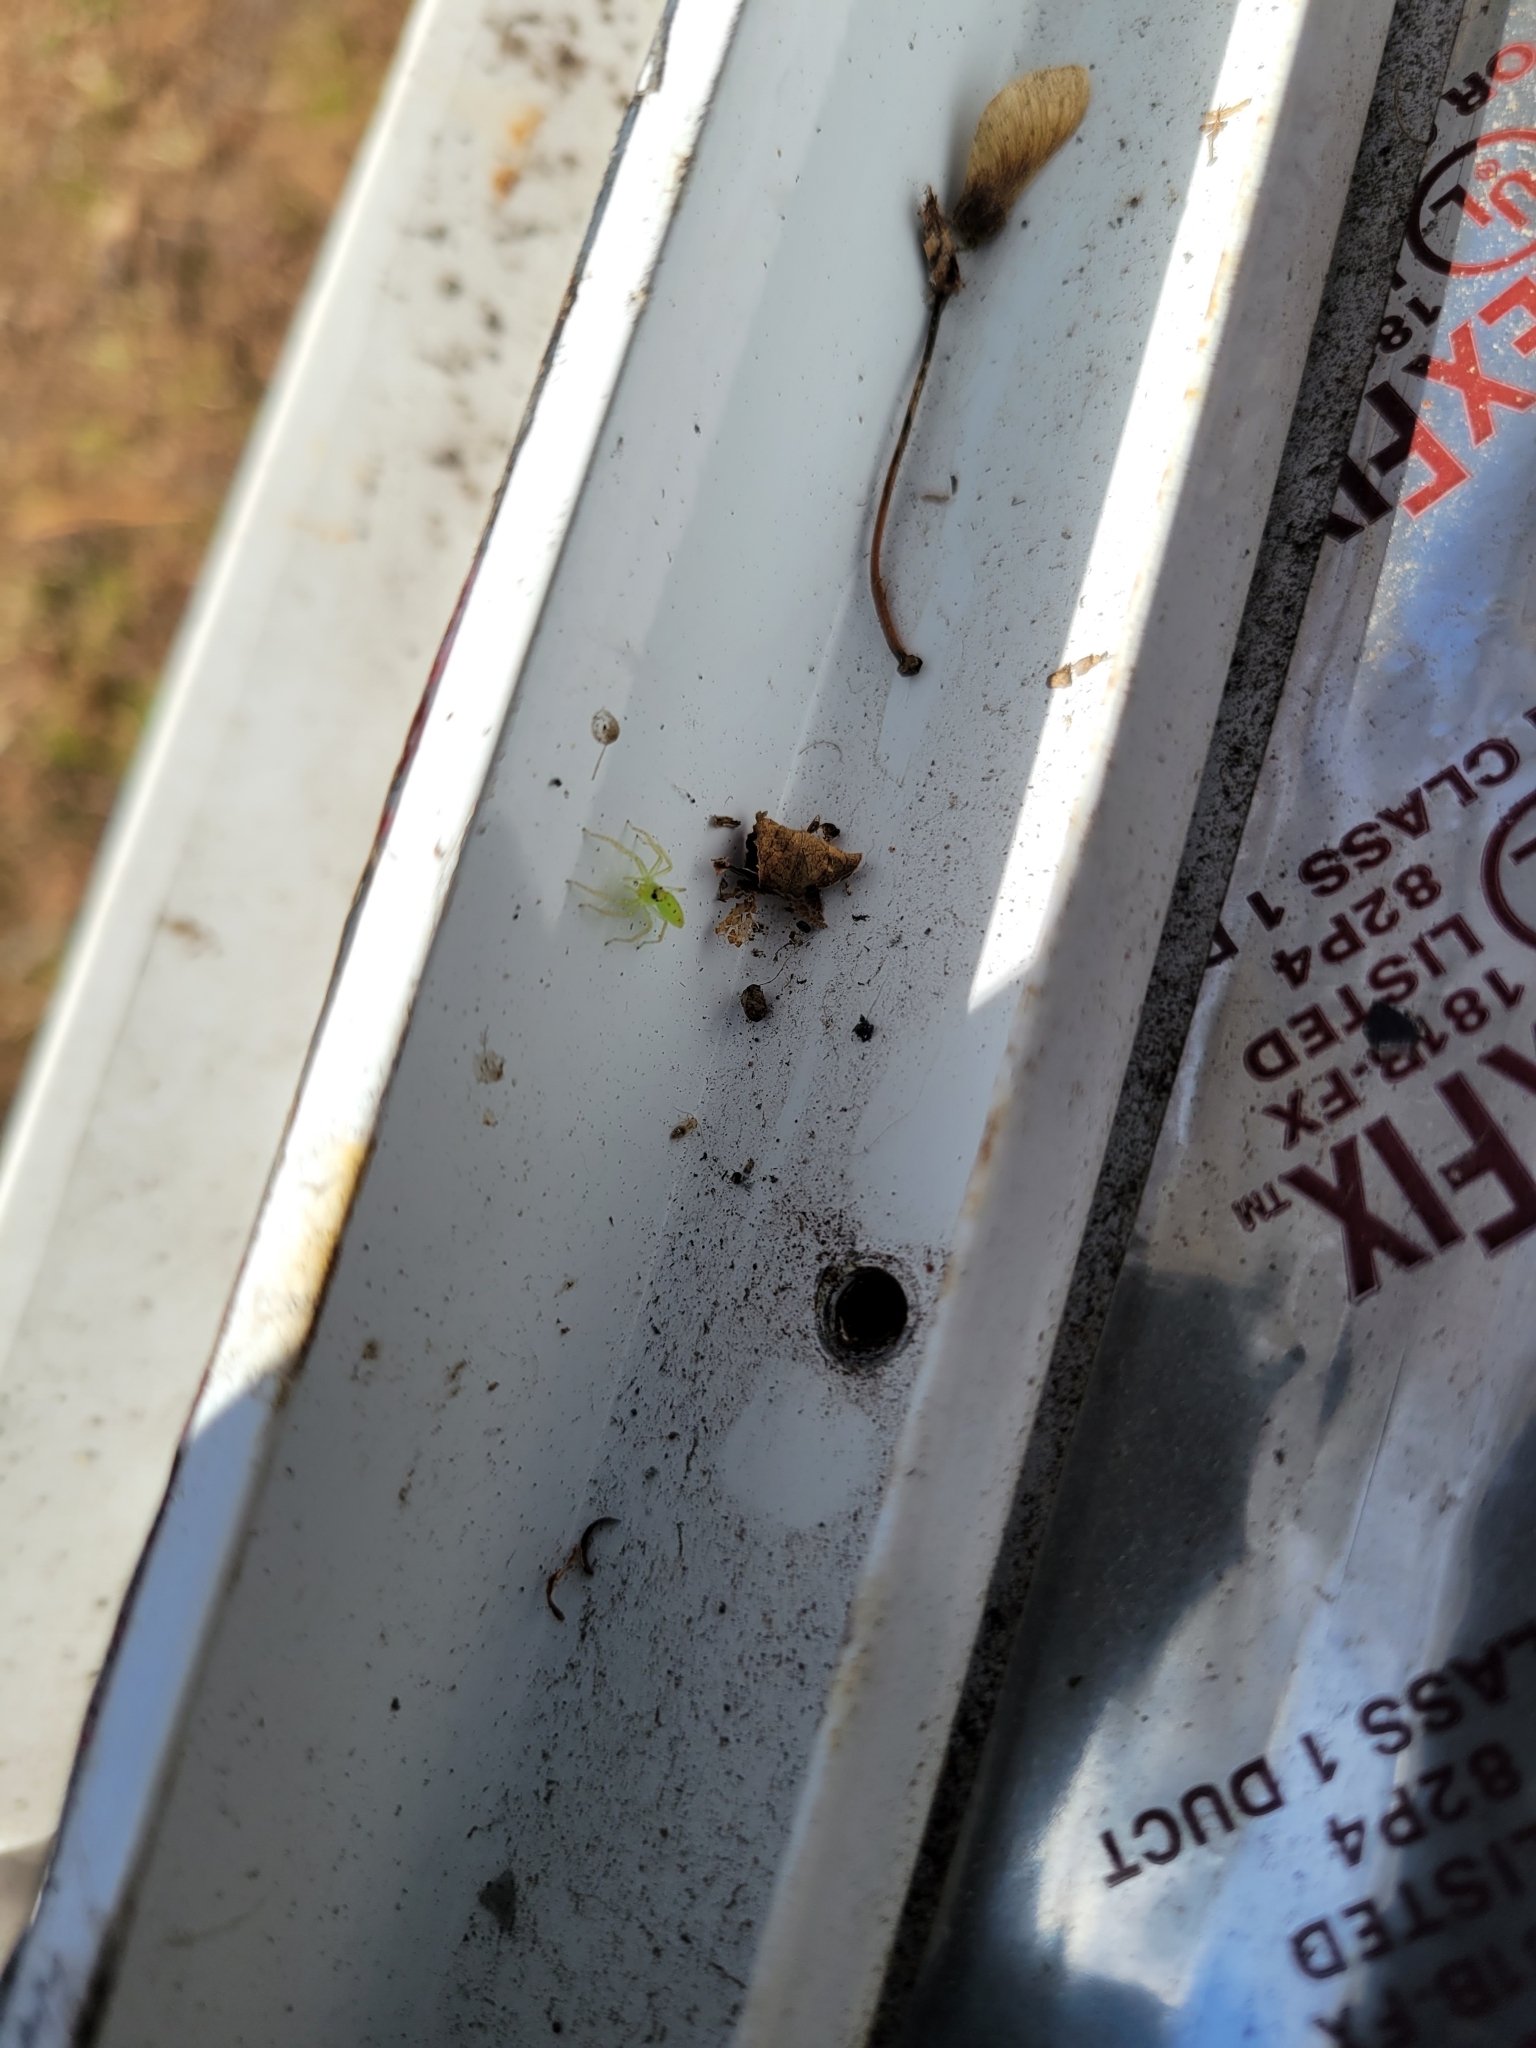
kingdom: Animalia
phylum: Arthropoda
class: Arachnida
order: Araneae
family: Salticidae
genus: Lyssomanes
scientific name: Lyssomanes viridis
